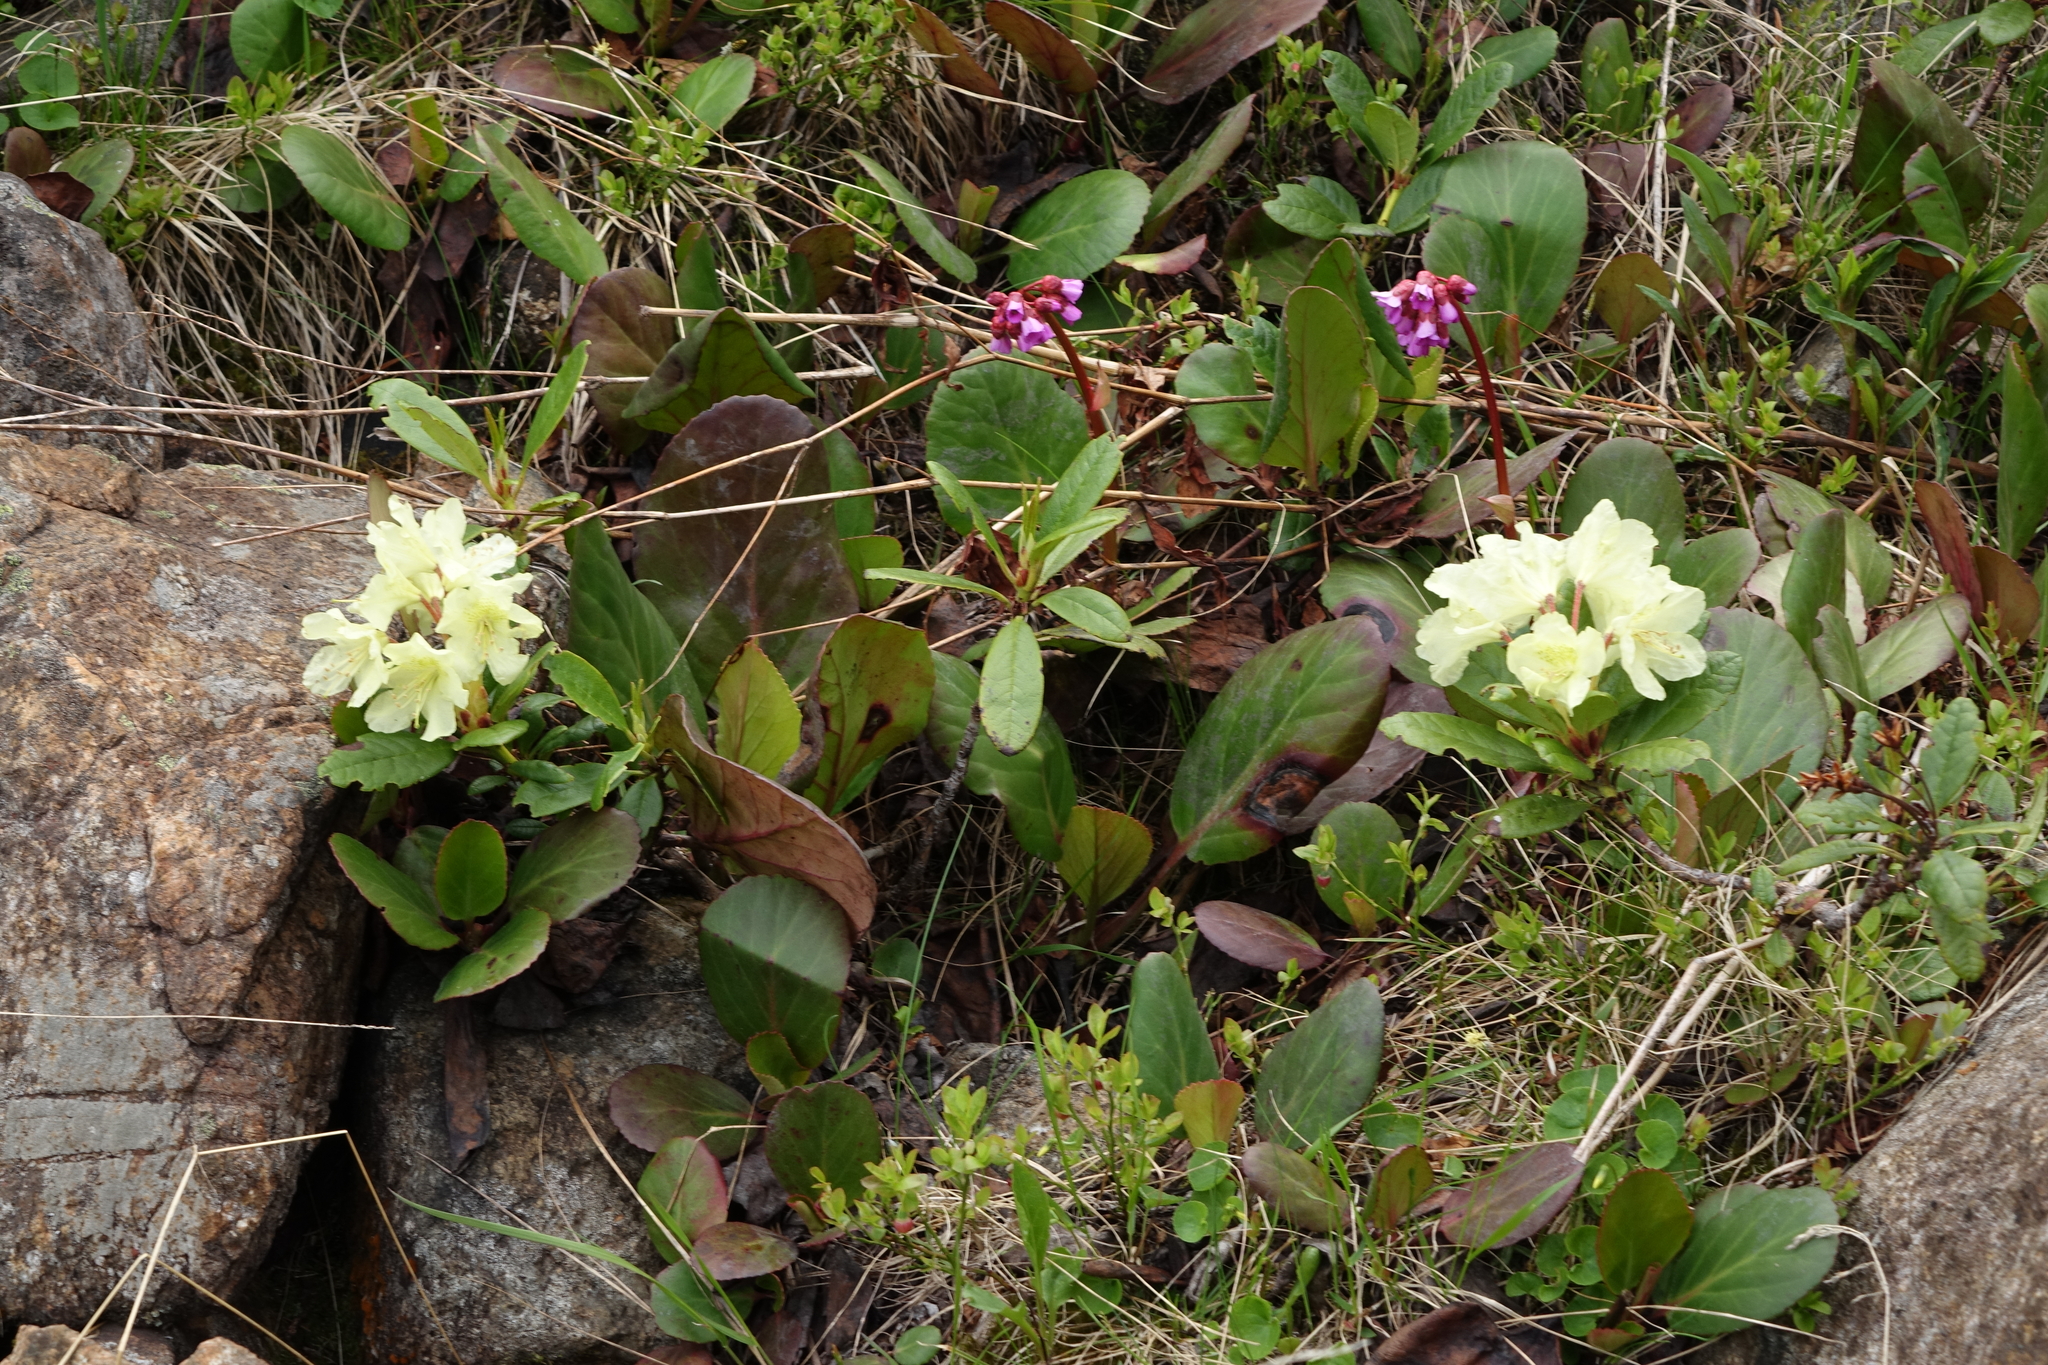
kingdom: Plantae
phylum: Tracheophyta
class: Magnoliopsida
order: Ericales
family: Ericaceae
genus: Rhododendron
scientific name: Rhododendron aureum
